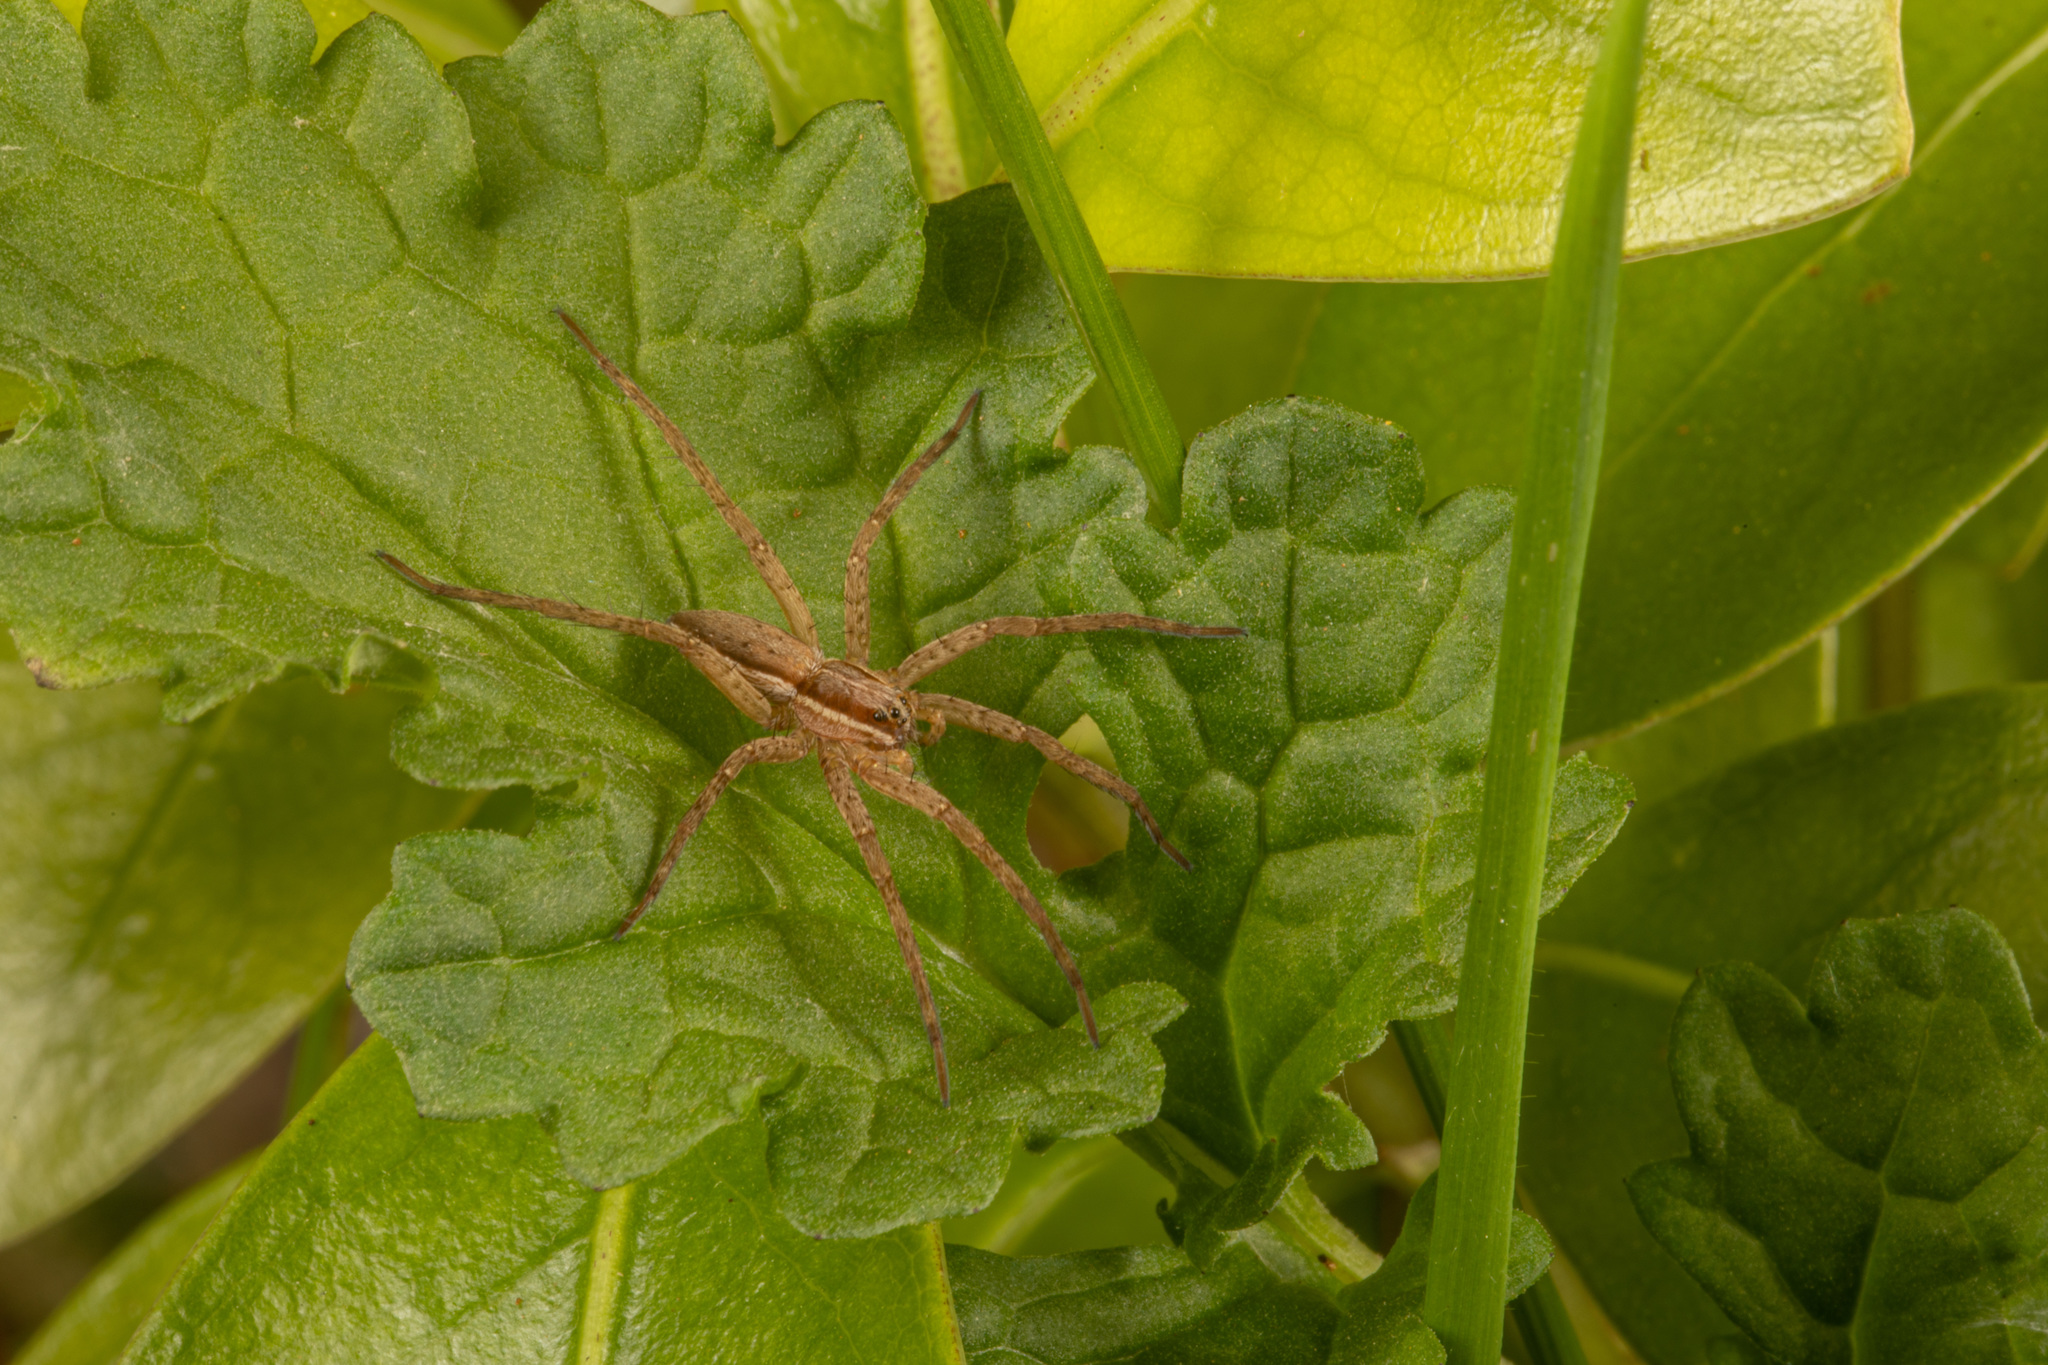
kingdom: Animalia
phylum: Arthropoda
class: Arachnida
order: Araneae
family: Pisauridae
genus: Dolomedes
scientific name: Dolomedes minor
